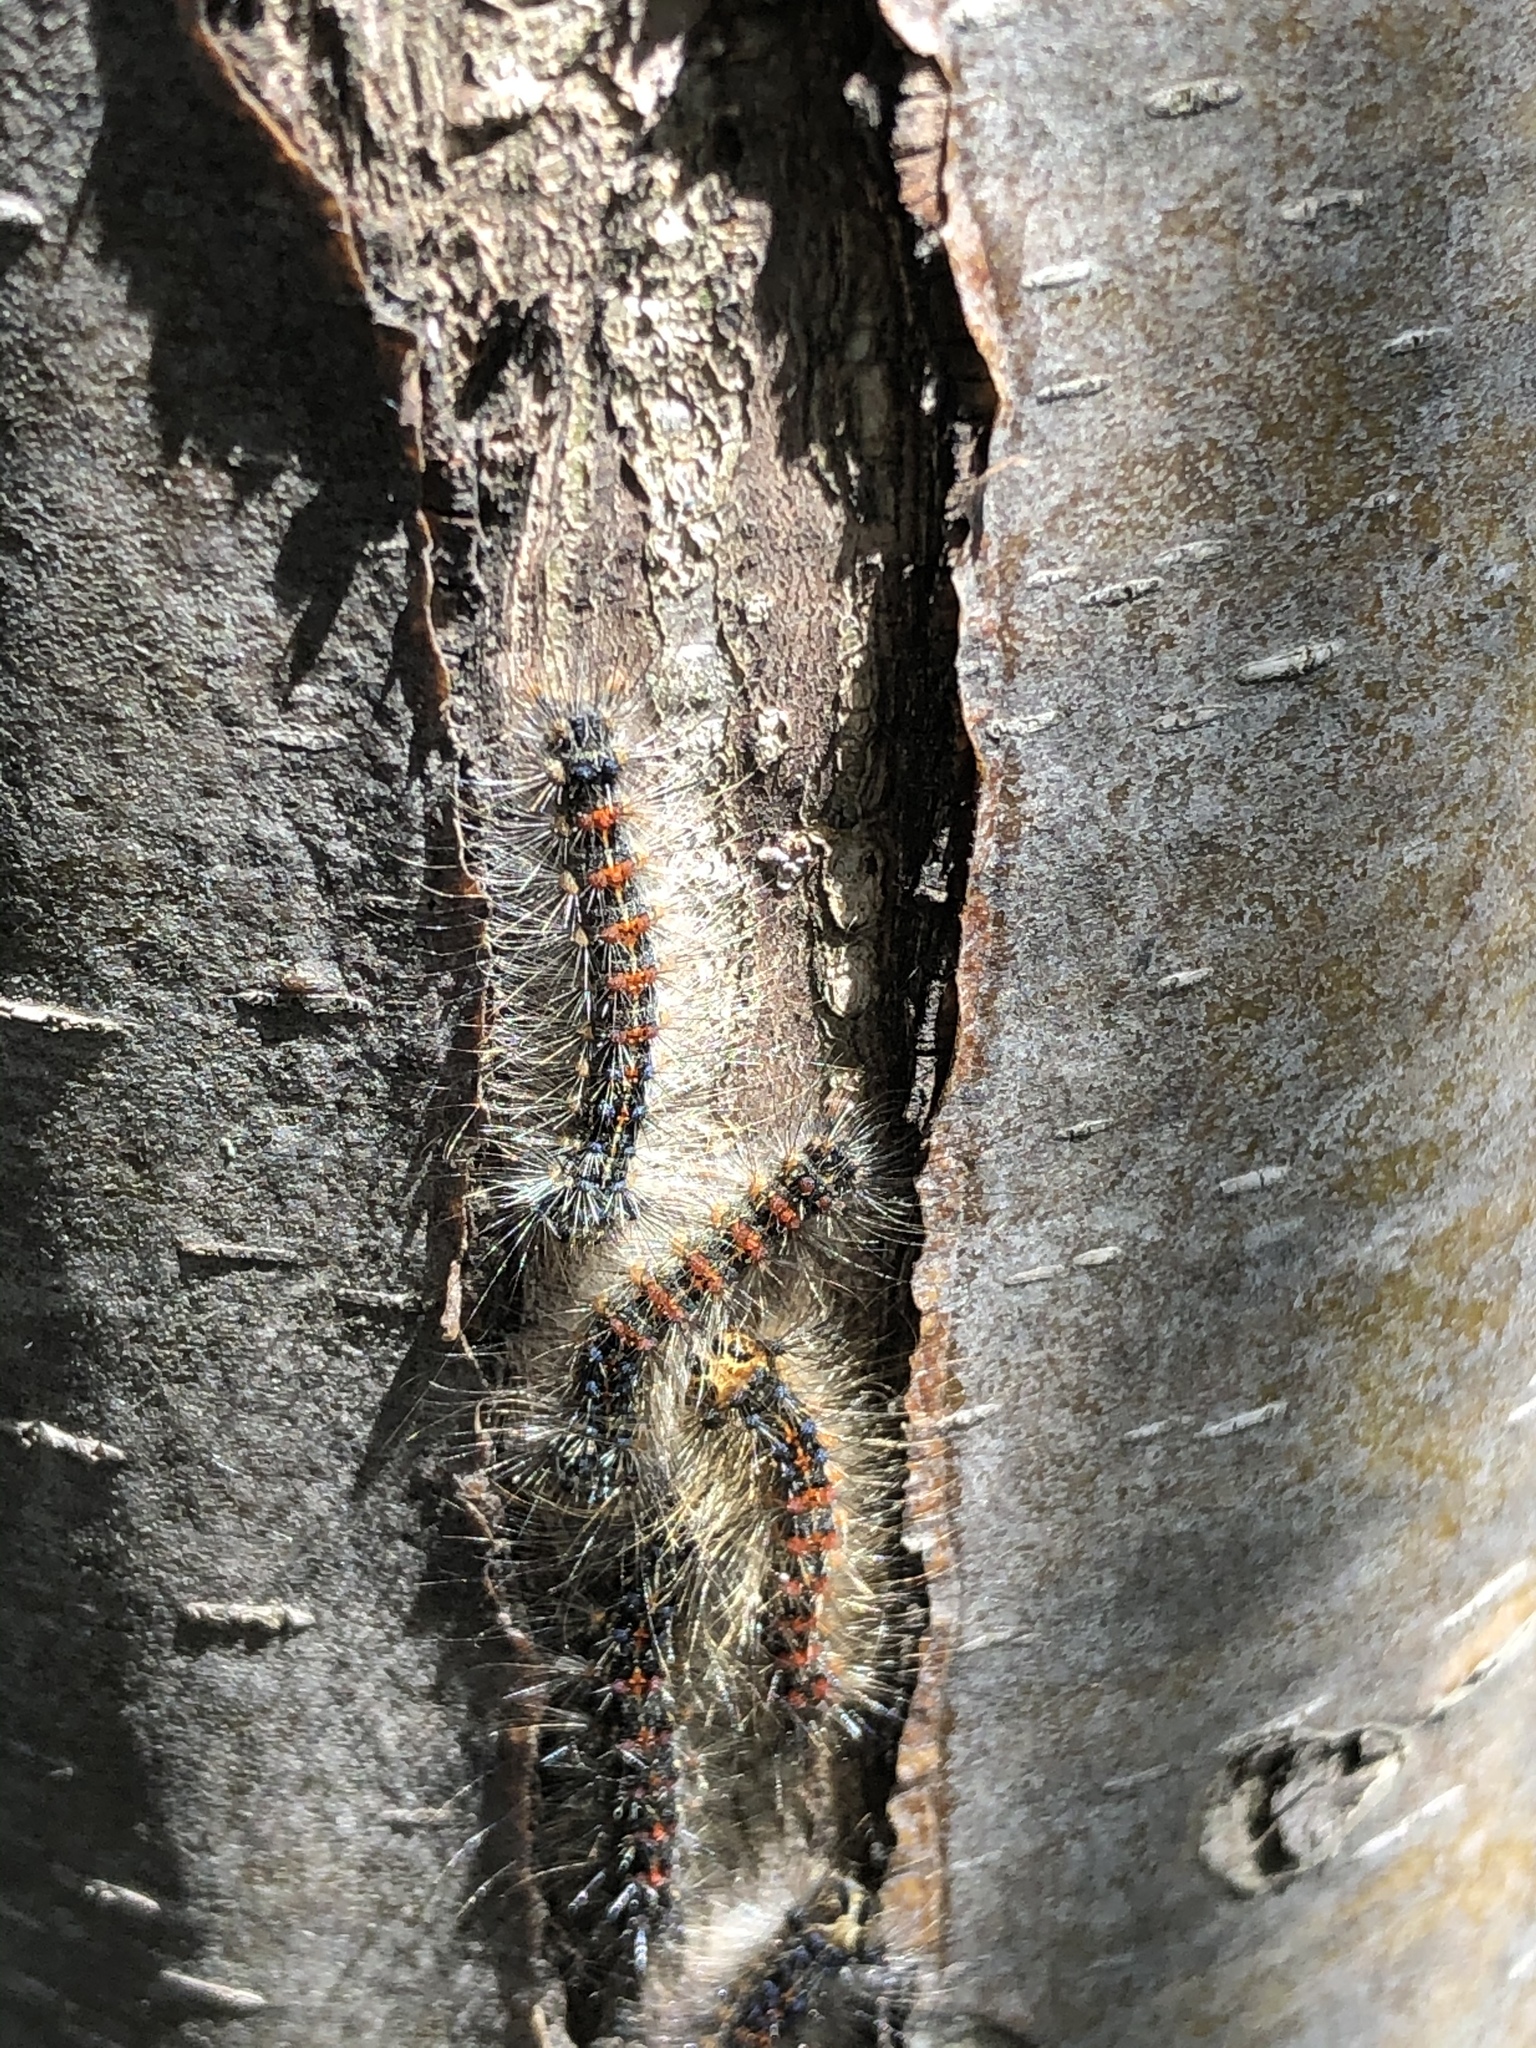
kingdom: Animalia
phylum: Arthropoda
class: Insecta
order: Lepidoptera
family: Erebidae
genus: Lymantria
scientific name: Lymantria dispar
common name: Gypsy moth
